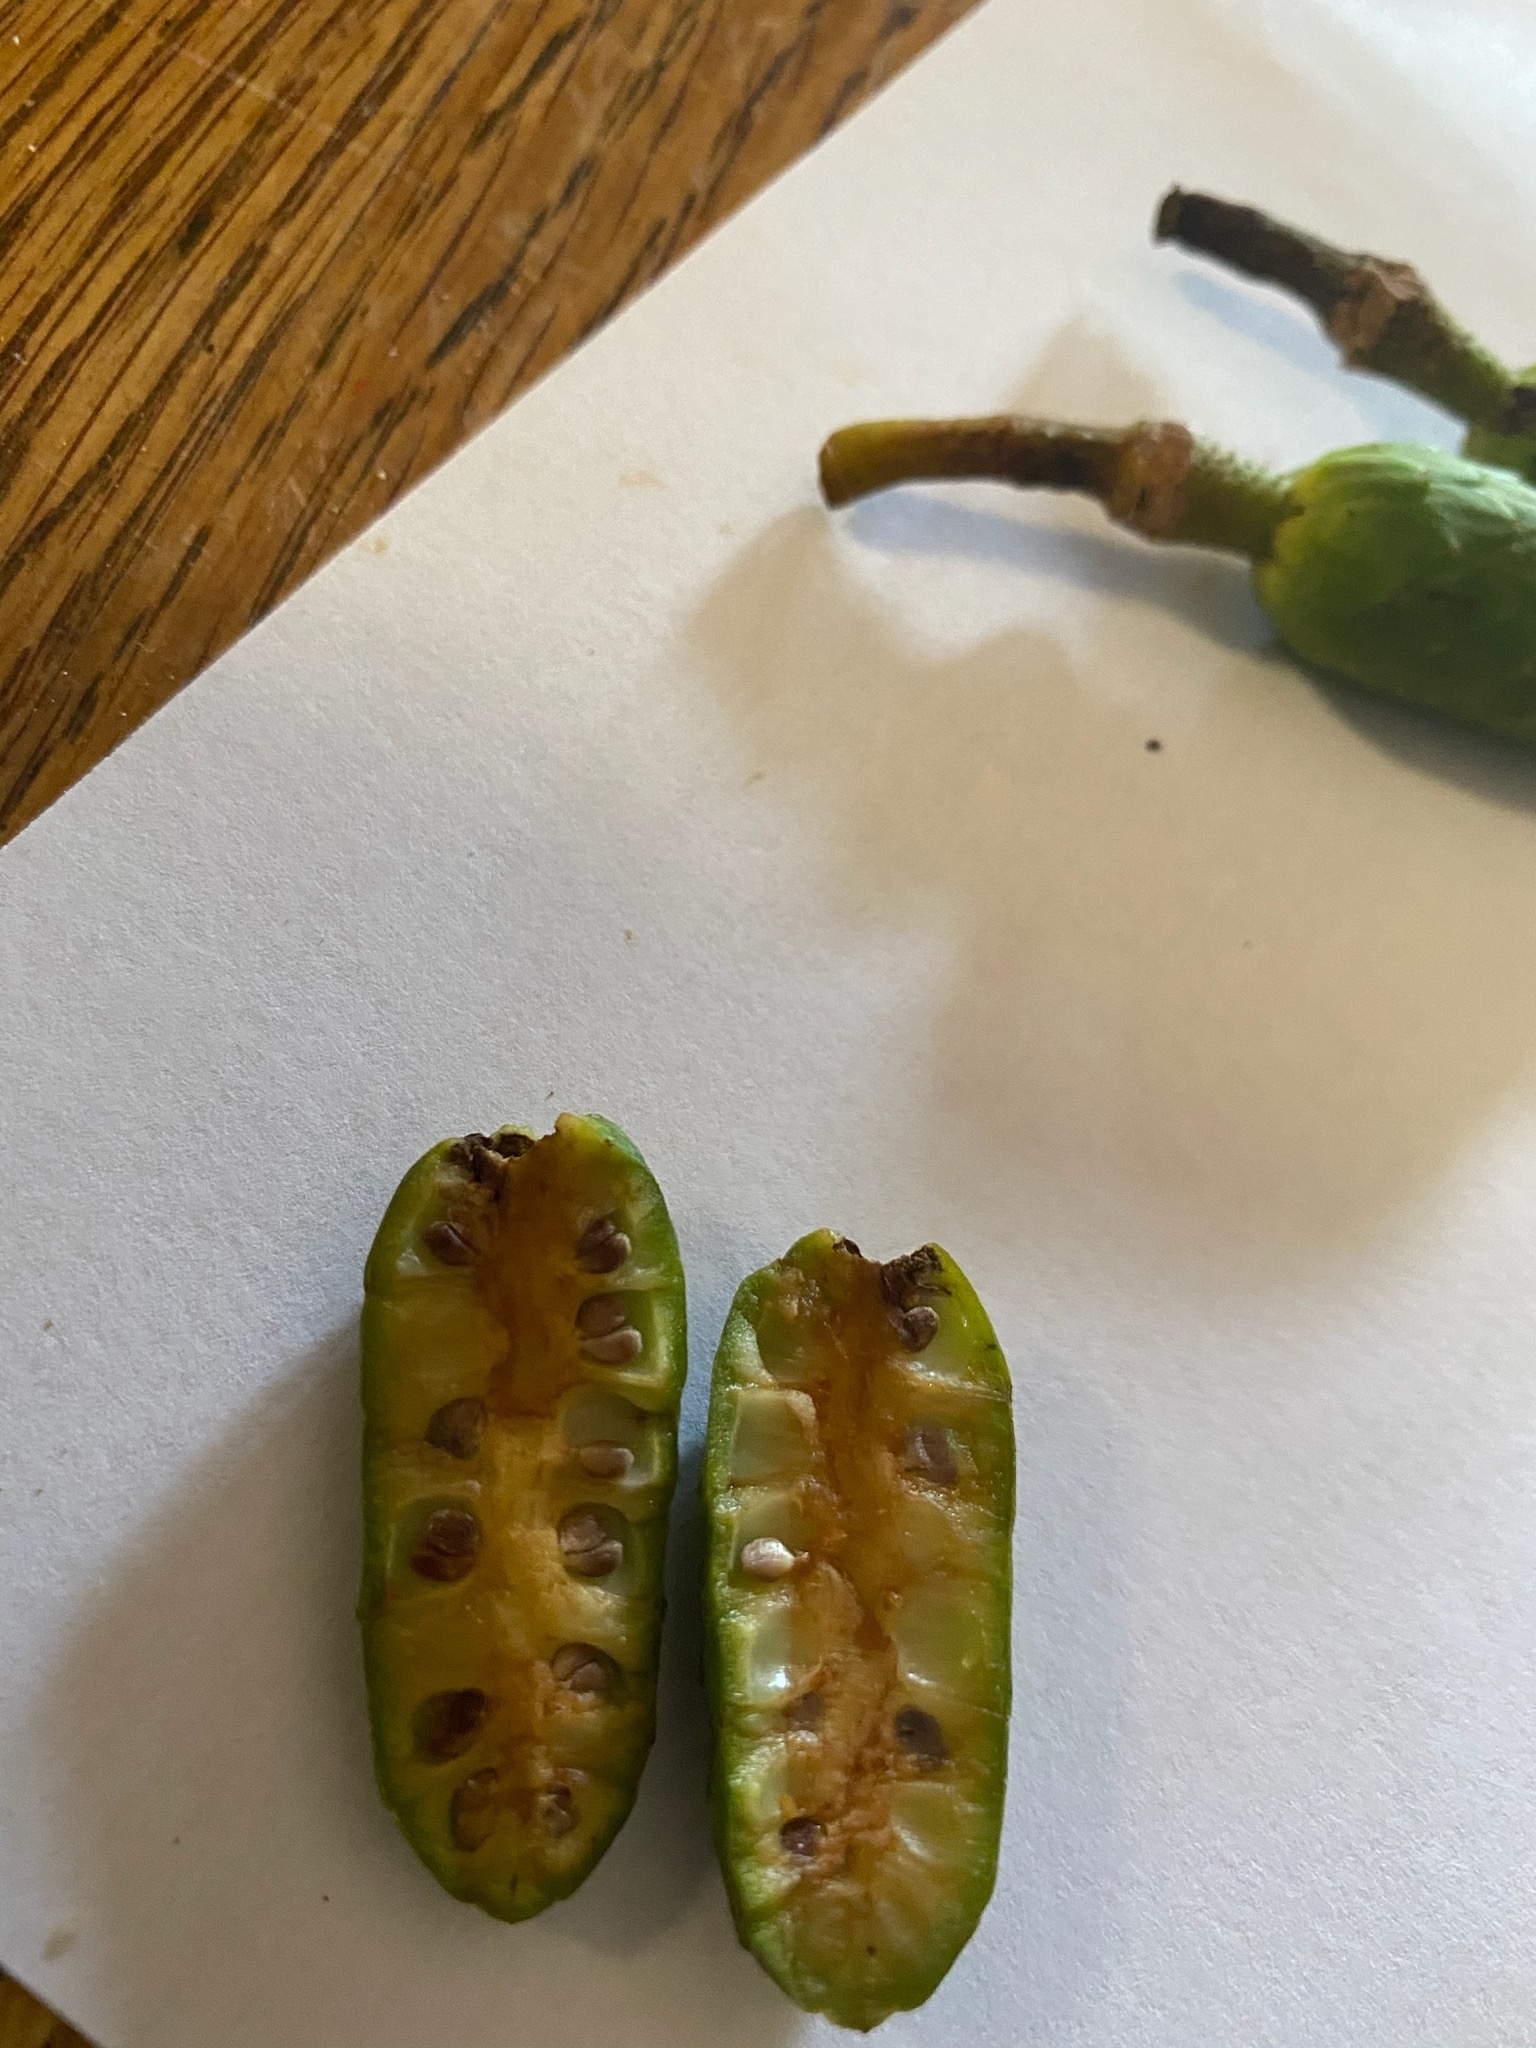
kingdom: Plantae
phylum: Tracheophyta
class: Magnoliopsida
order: Magnoliales
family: Magnoliaceae
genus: Magnolia
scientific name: Magnolia acuminata
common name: Cucumber magnolia
